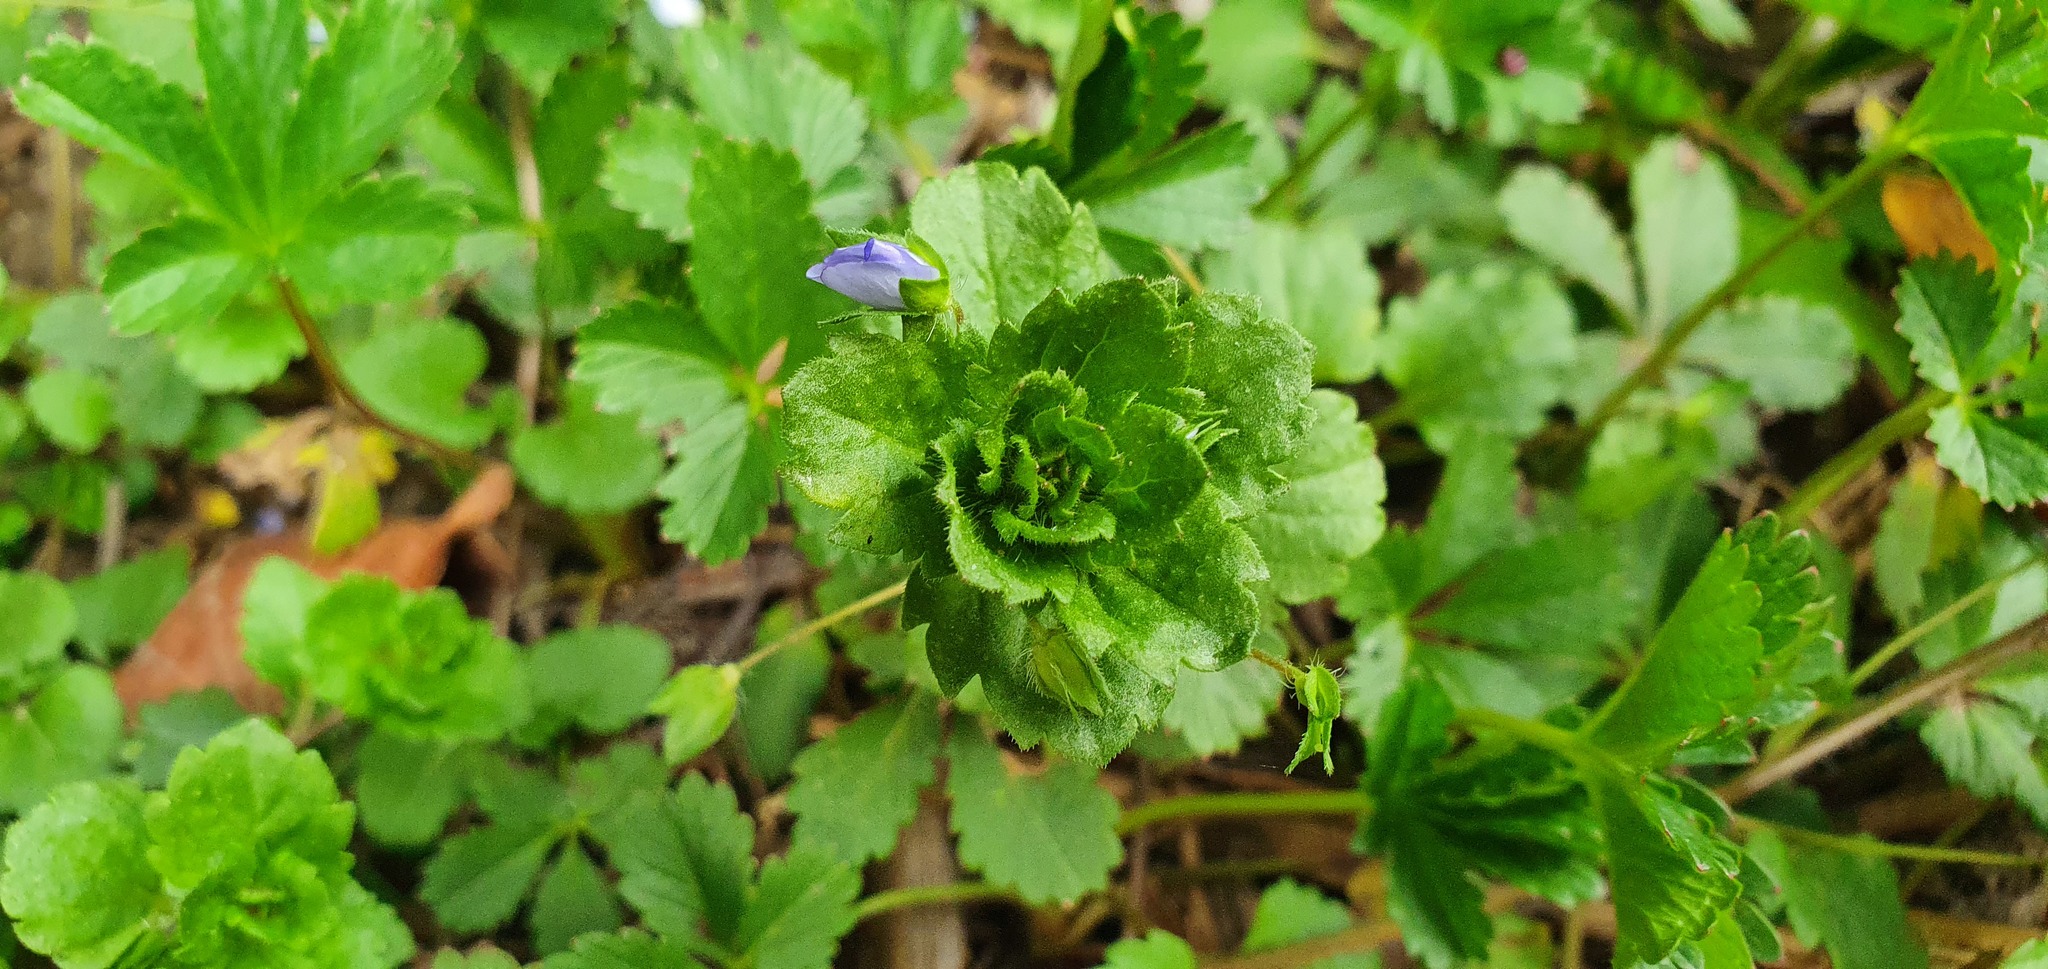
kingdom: Plantae
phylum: Tracheophyta
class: Magnoliopsida
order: Lamiales
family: Plantaginaceae
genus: Veronica
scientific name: Veronica persica
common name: Common field-speedwell
